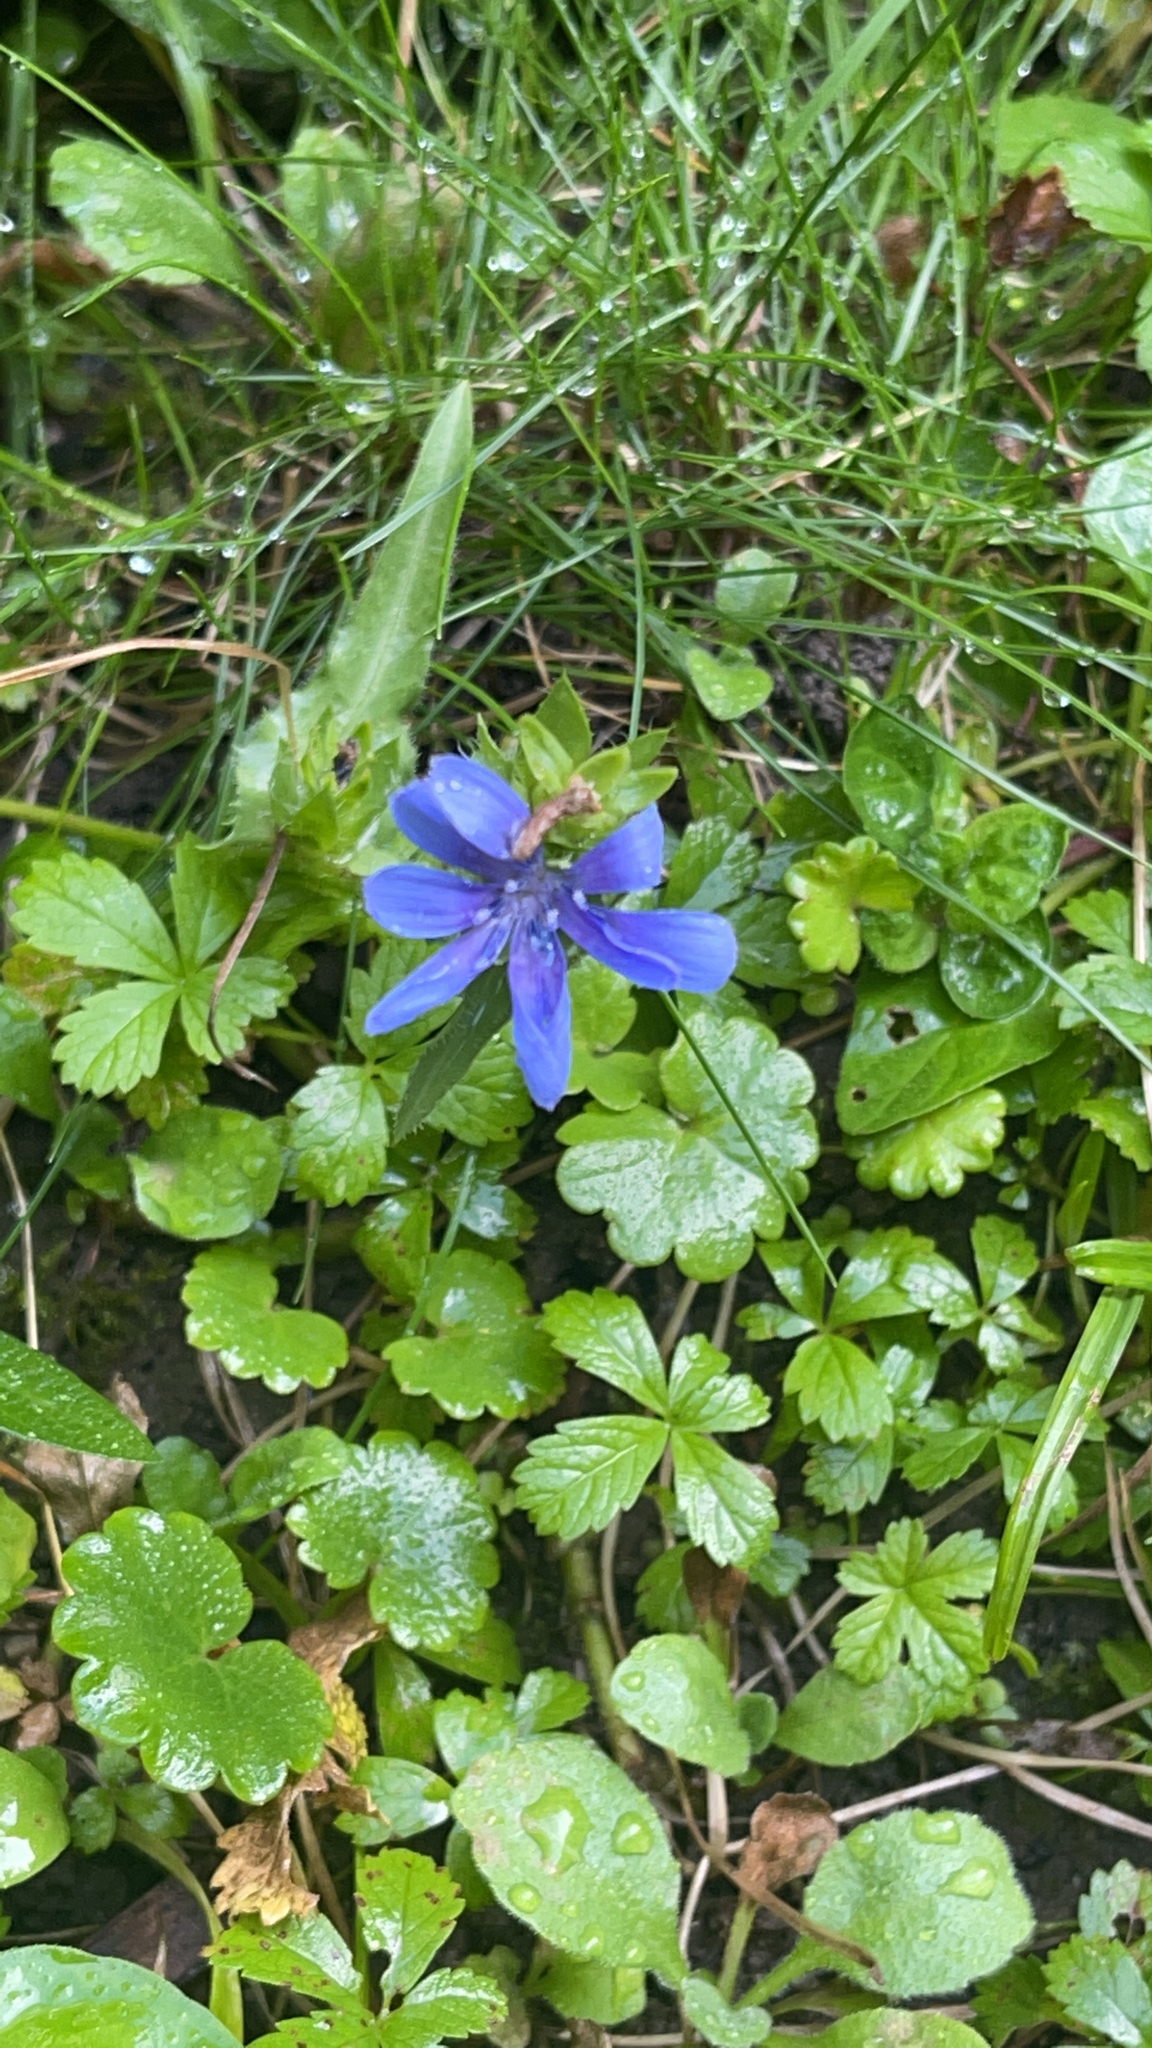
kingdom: Plantae
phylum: Tracheophyta
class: Magnoliopsida
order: Asterales
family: Asteraceae
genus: Cichorium
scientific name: Cichorium intybus
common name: Chicory
